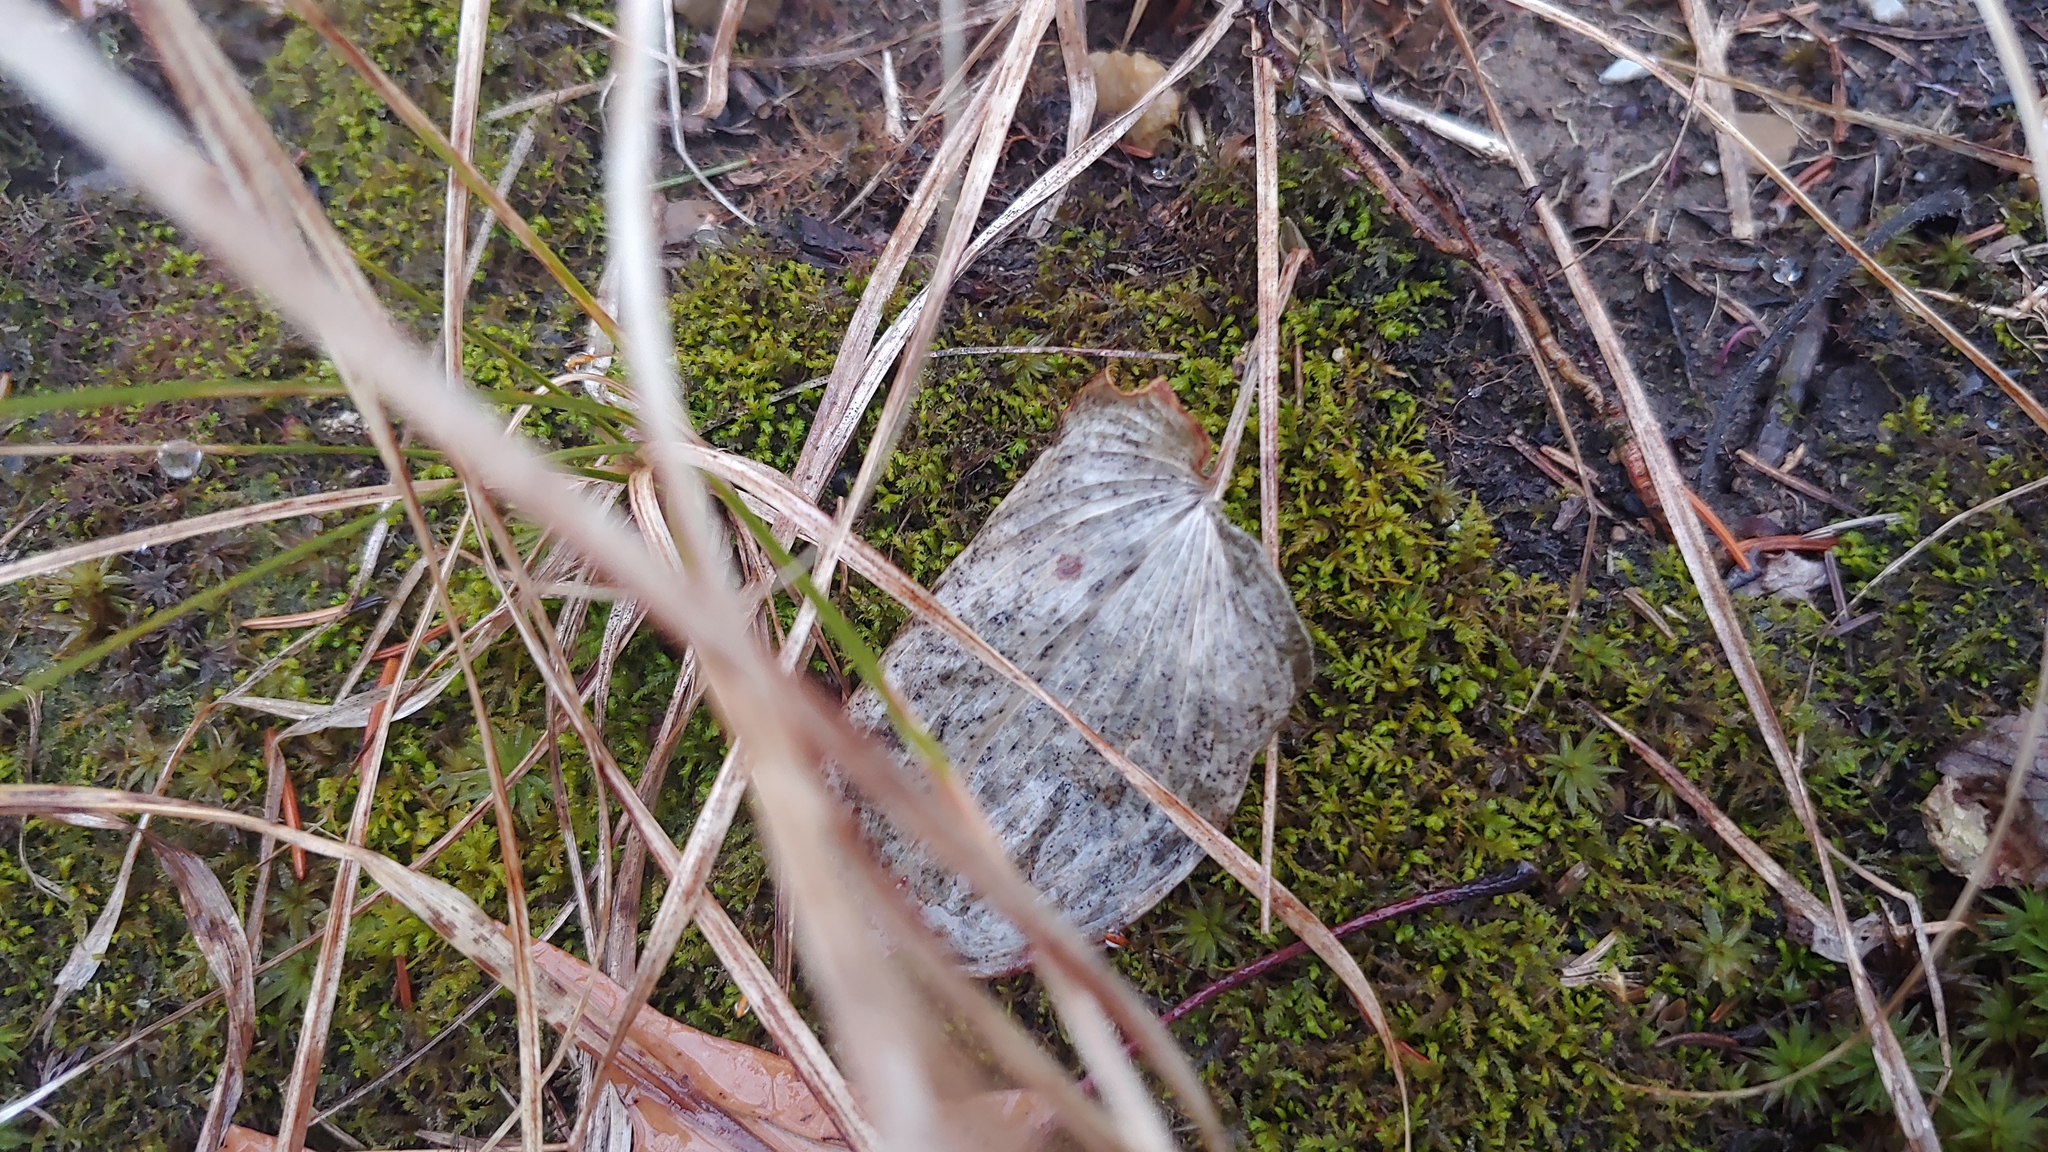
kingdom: Plantae
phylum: Tracheophyta
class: Liliopsida
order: Asparagales
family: Asparagaceae
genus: Maianthemum
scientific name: Maianthemum canadense
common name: False lily-of-the-valley
